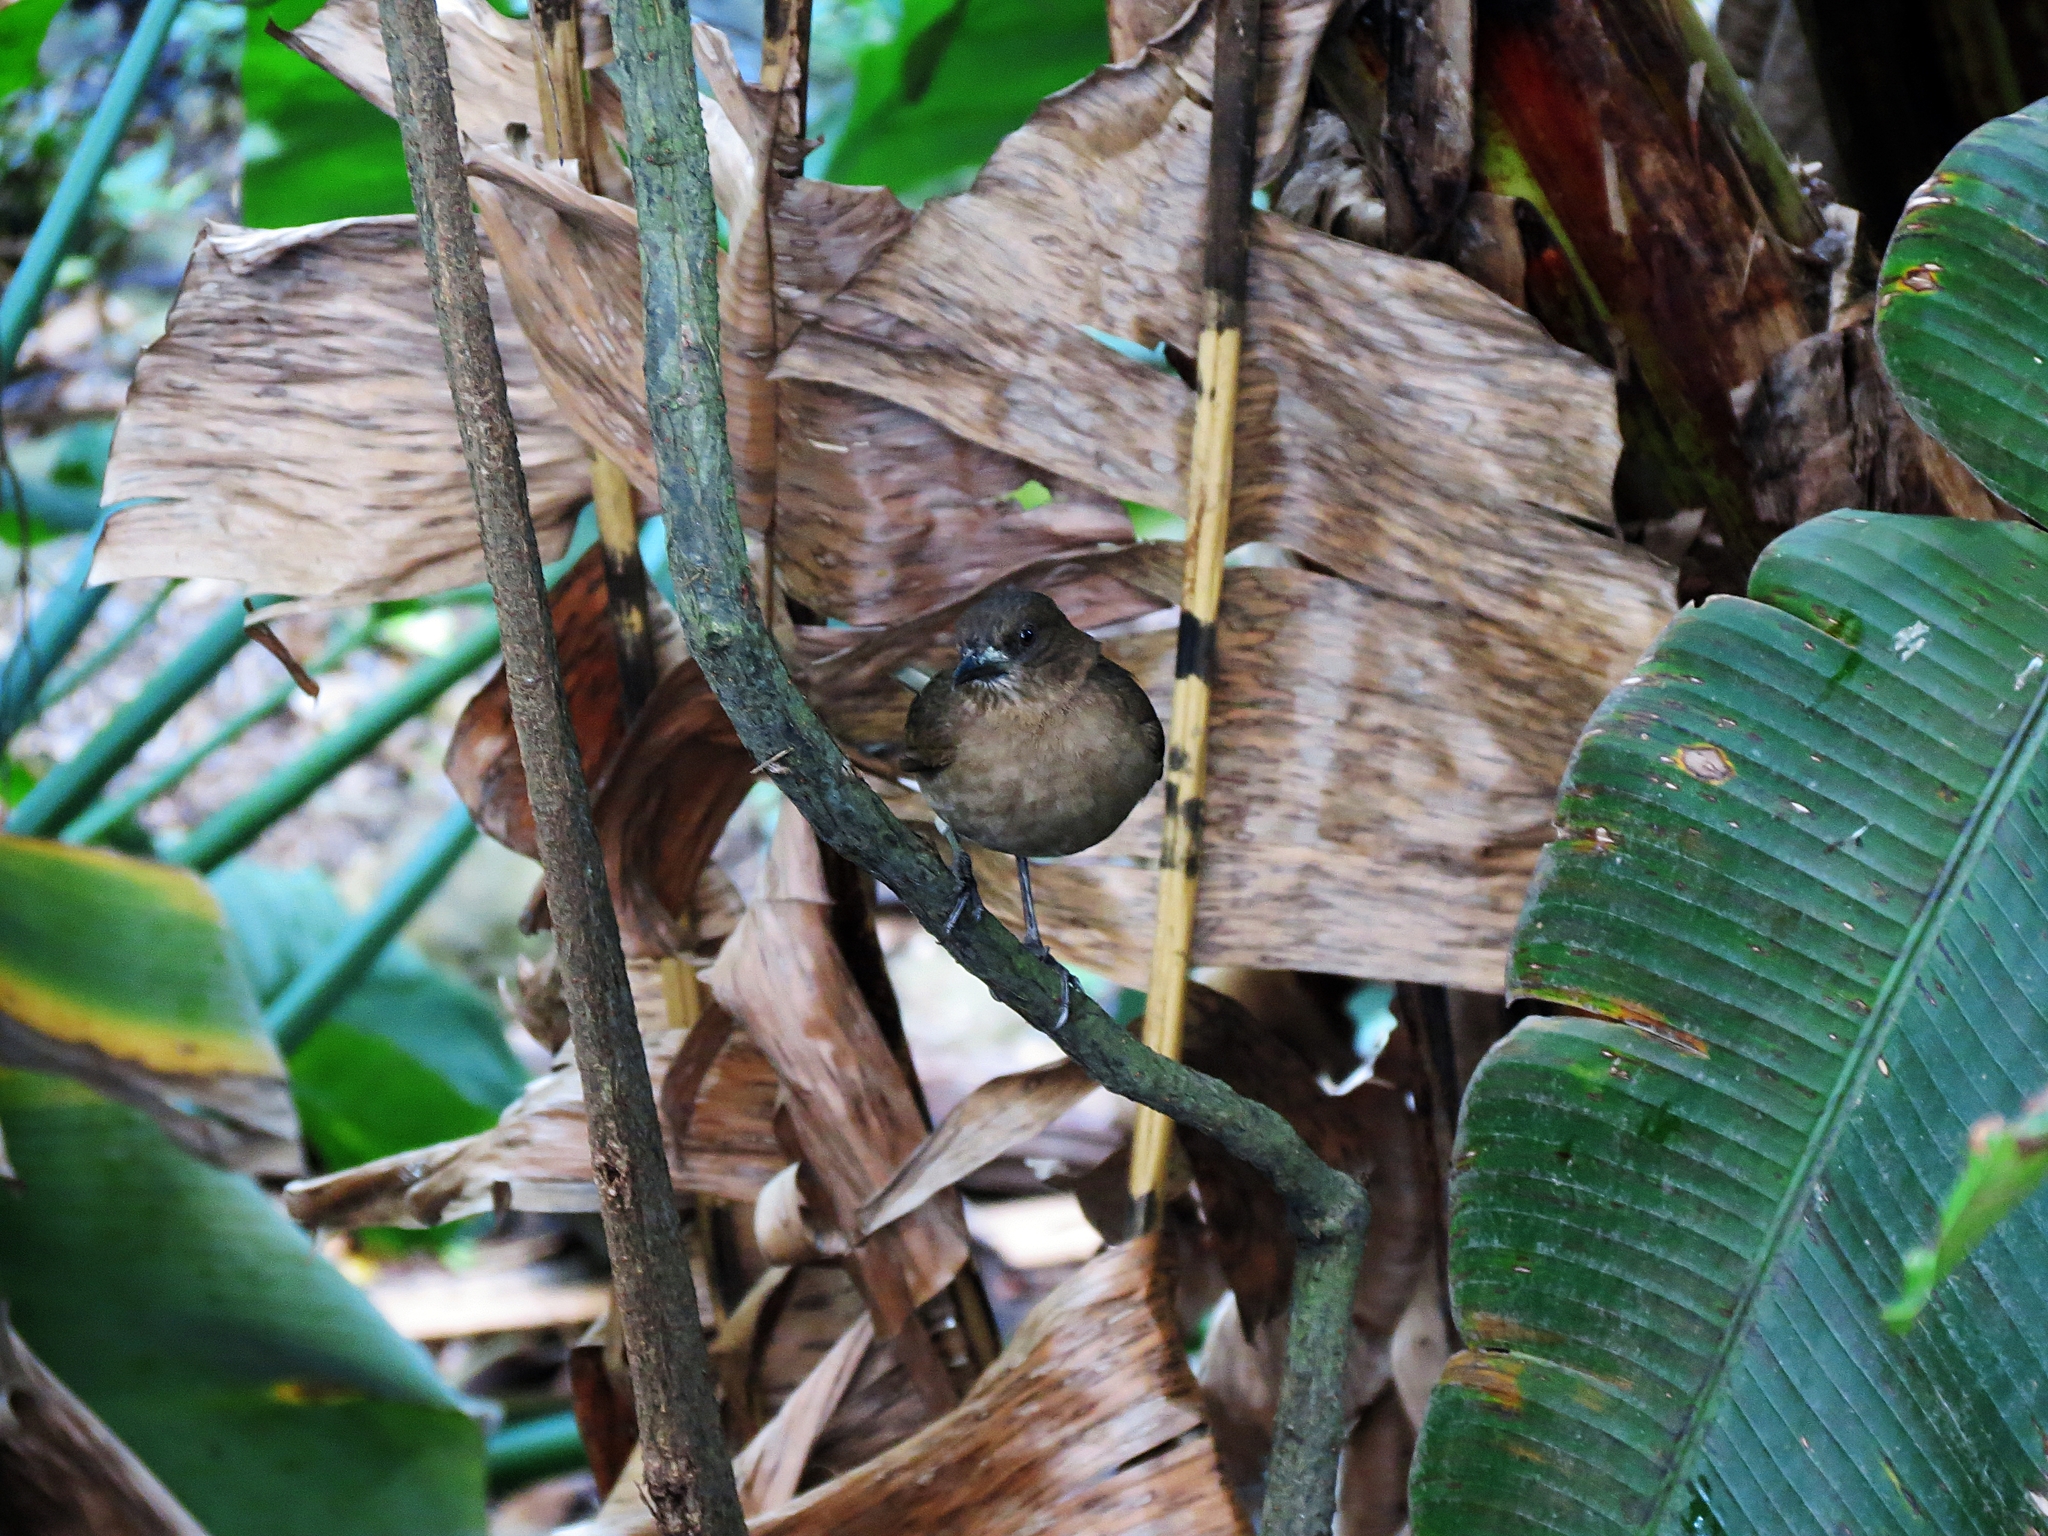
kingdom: Animalia
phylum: Chordata
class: Aves
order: Passeriformes
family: Turdidae
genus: Turdus
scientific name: Turdus ignobilis
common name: Black-billed thrush
